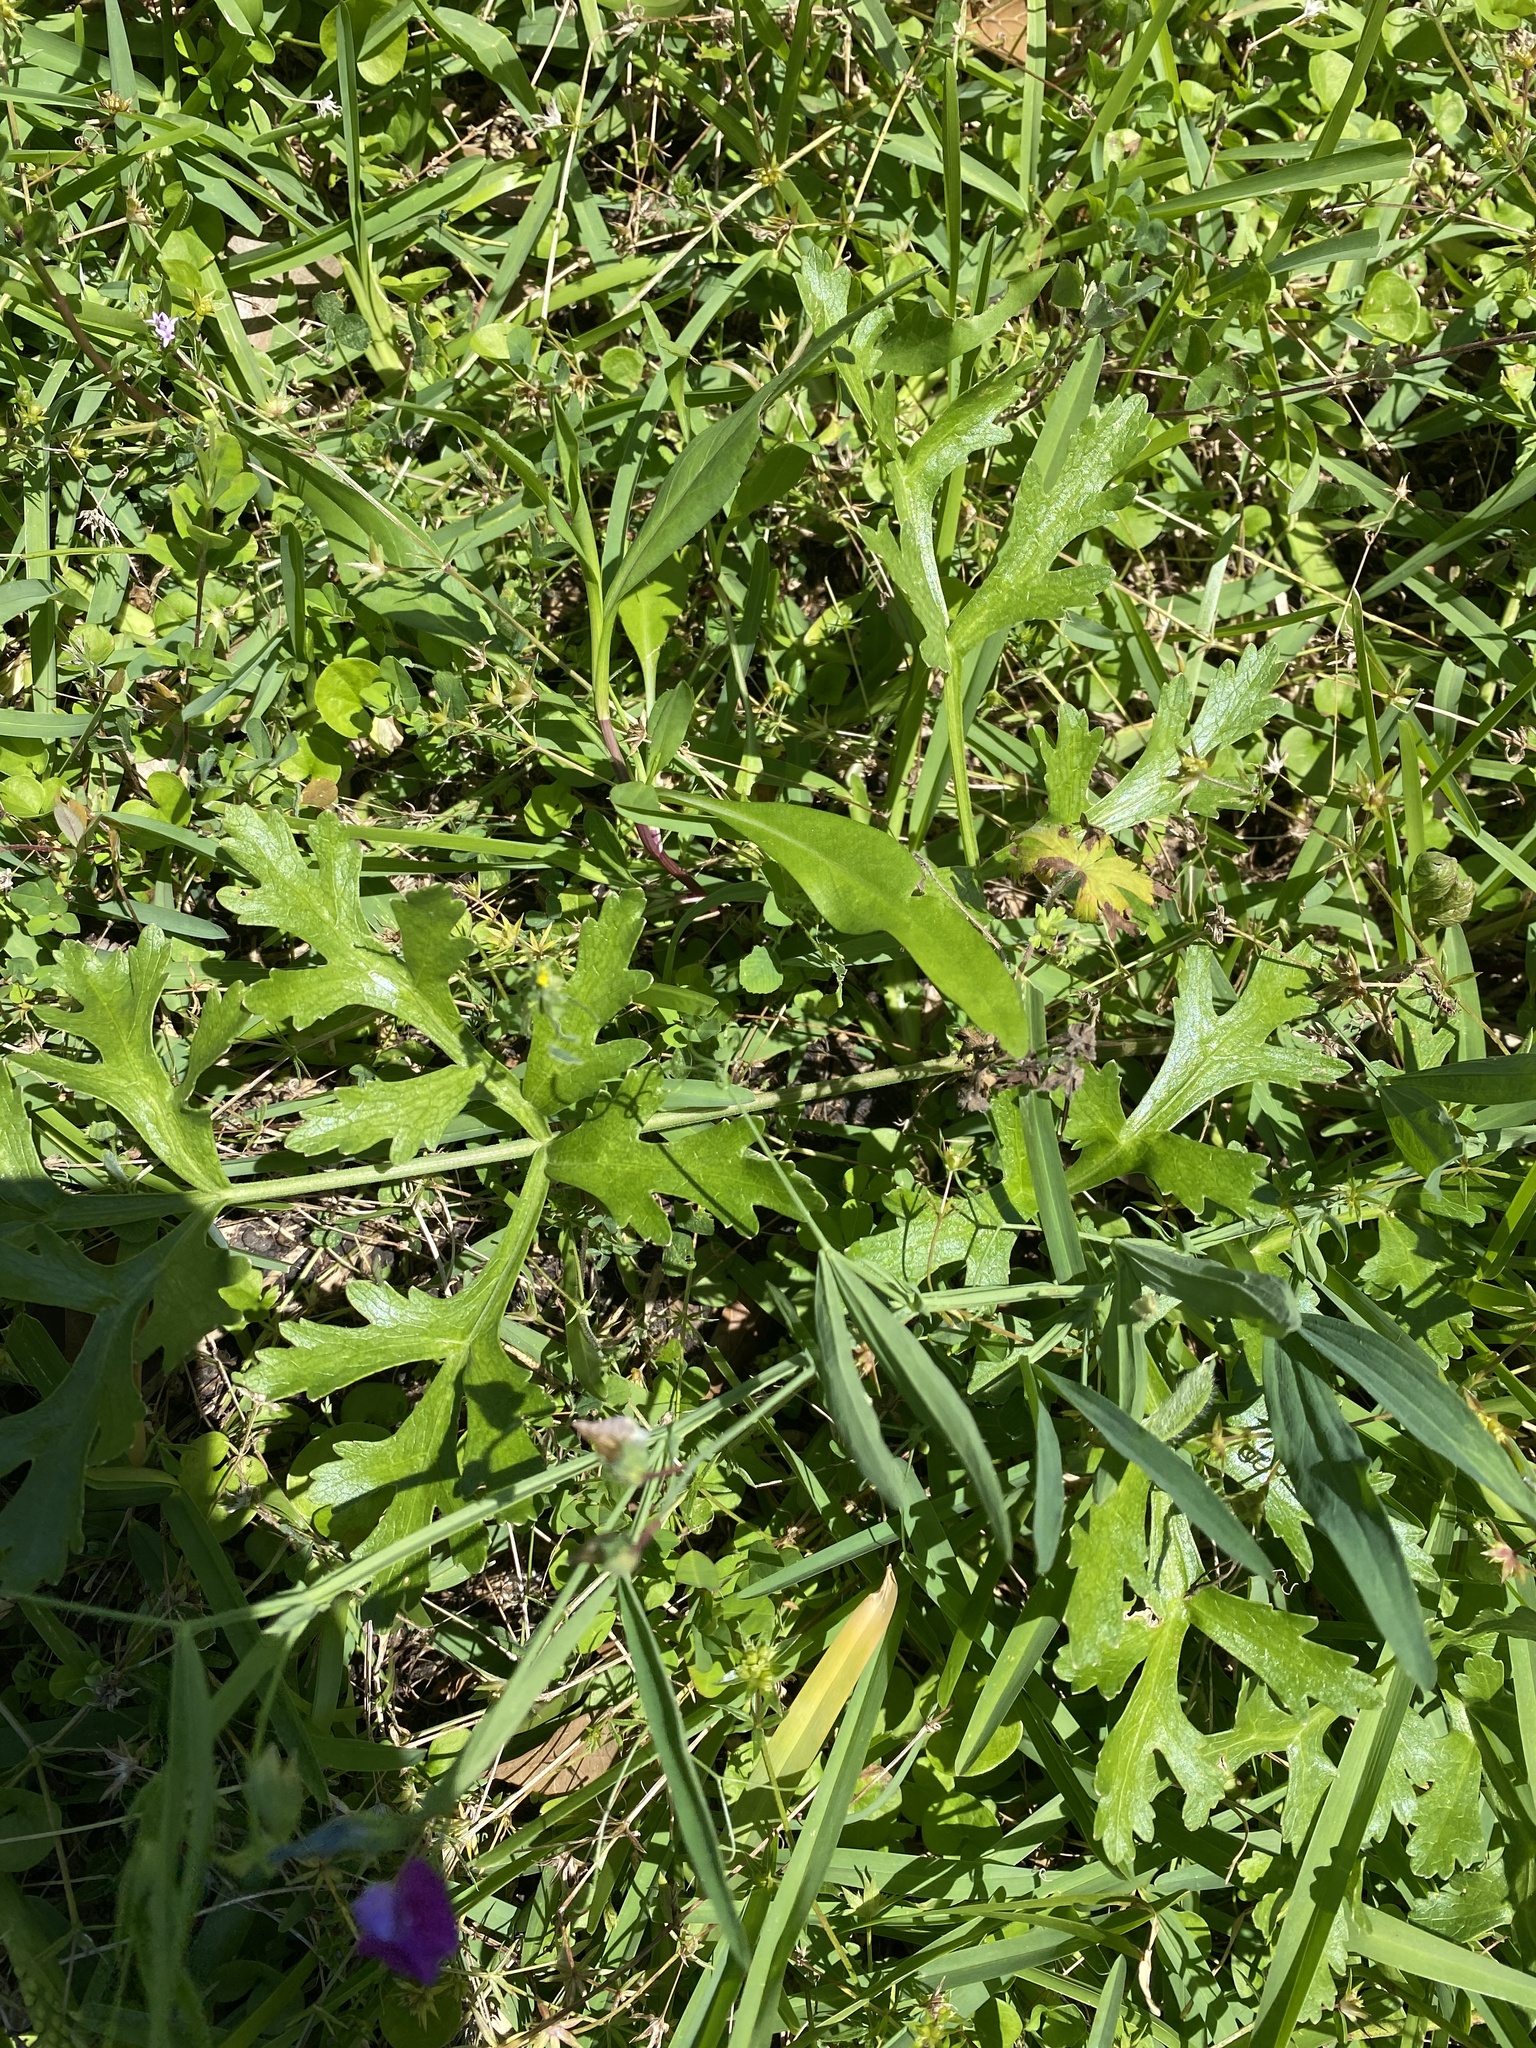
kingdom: Plantae
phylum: Tracheophyta
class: Magnoliopsida
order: Apiales
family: Apiaceae
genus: Polytaenia
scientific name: Polytaenia texana
